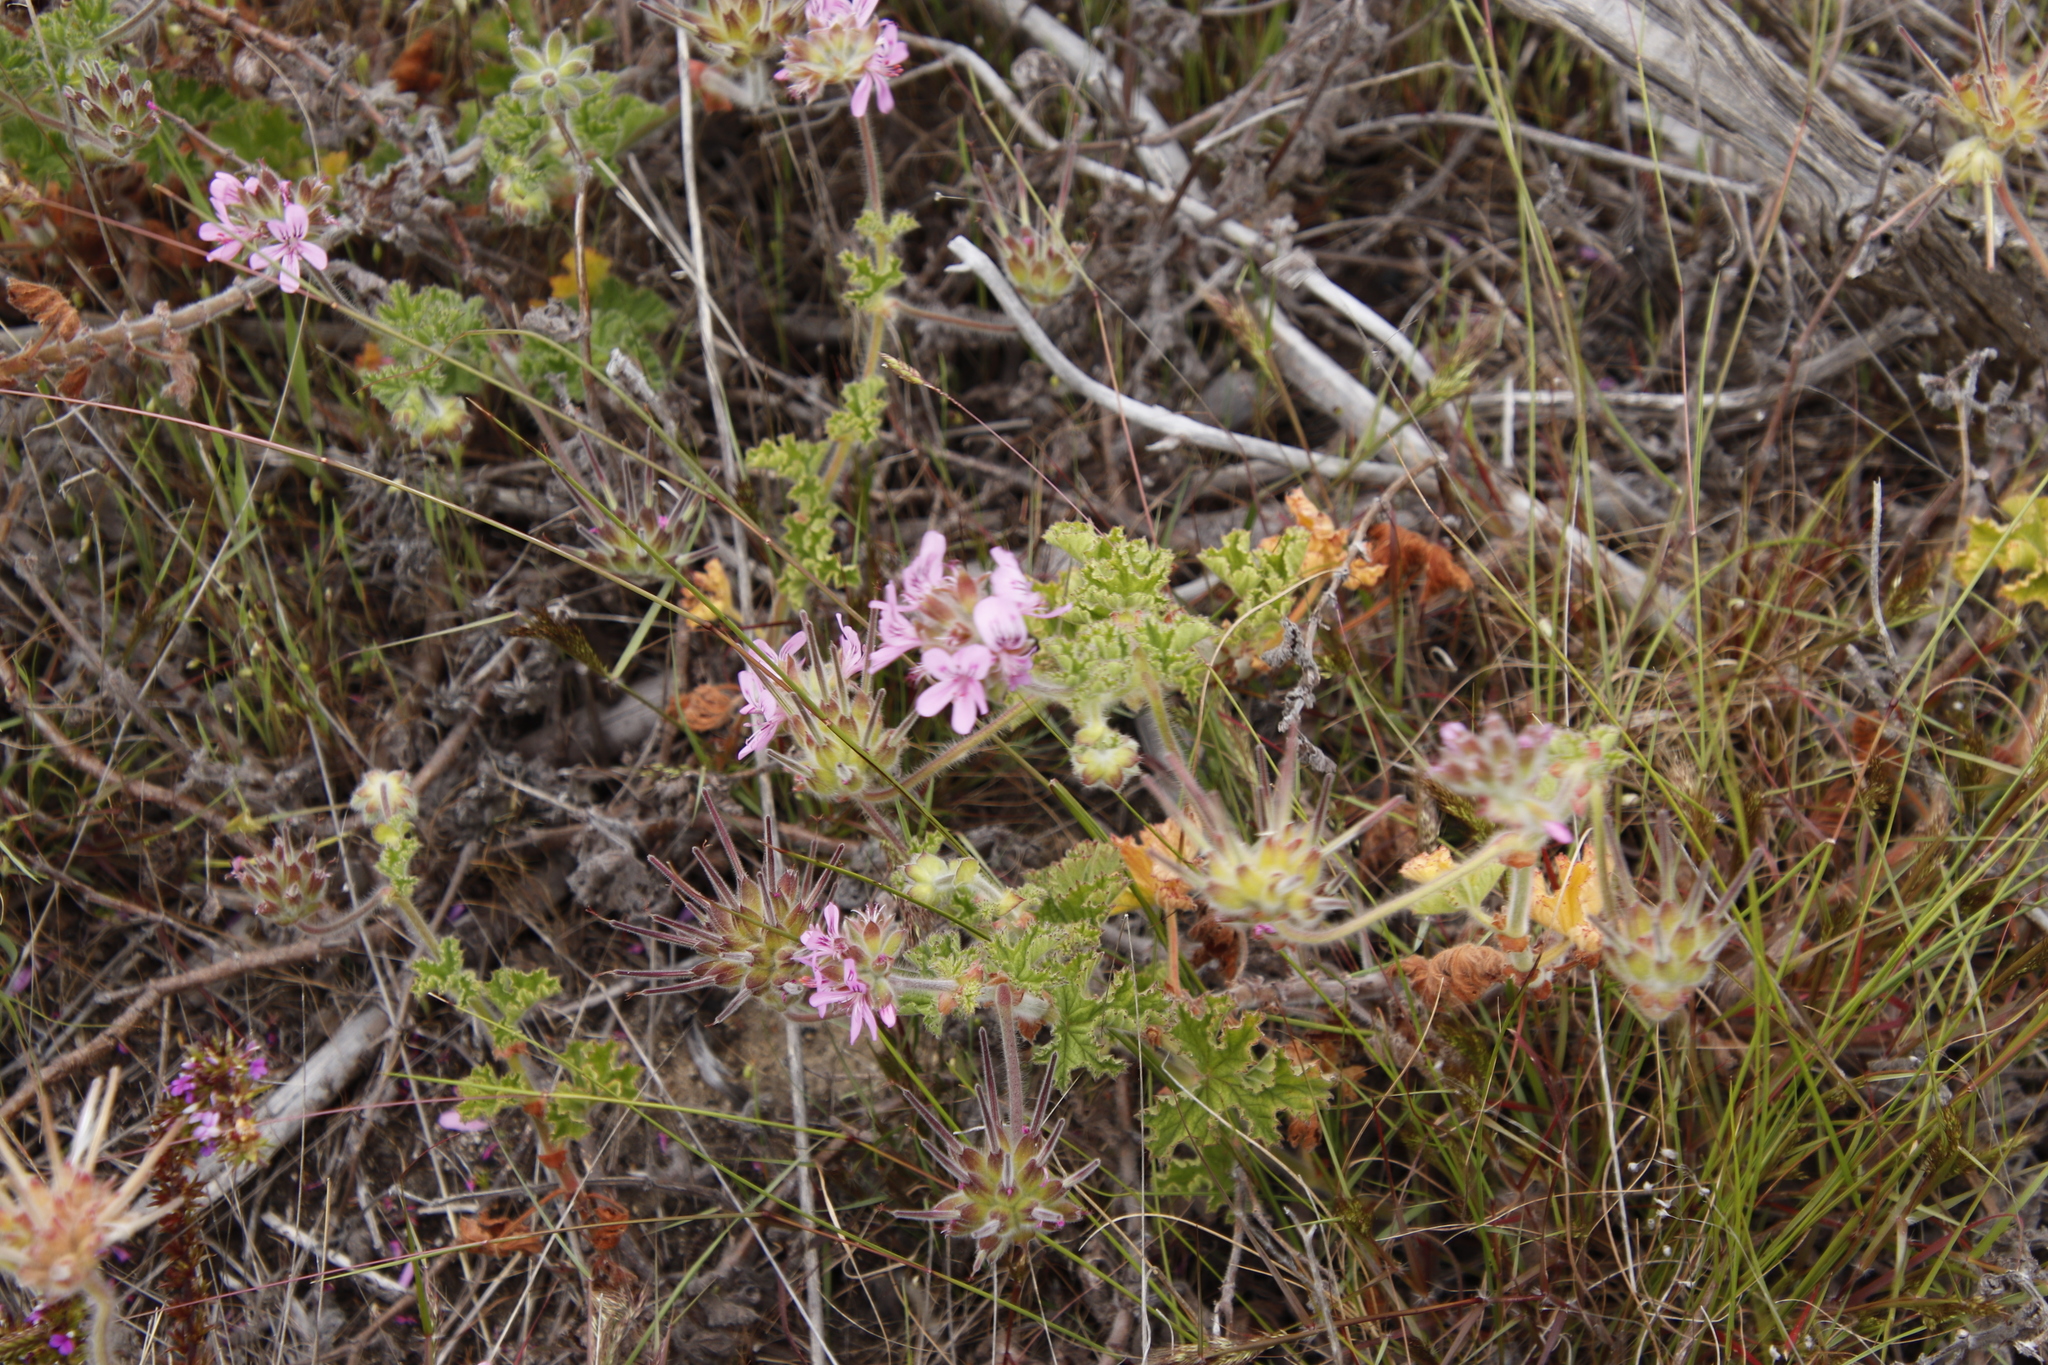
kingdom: Plantae
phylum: Tracheophyta
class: Magnoliopsida
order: Geraniales
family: Geraniaceae
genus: Pelargonium
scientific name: Pelargonium capitatum
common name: Rose scented geranium
